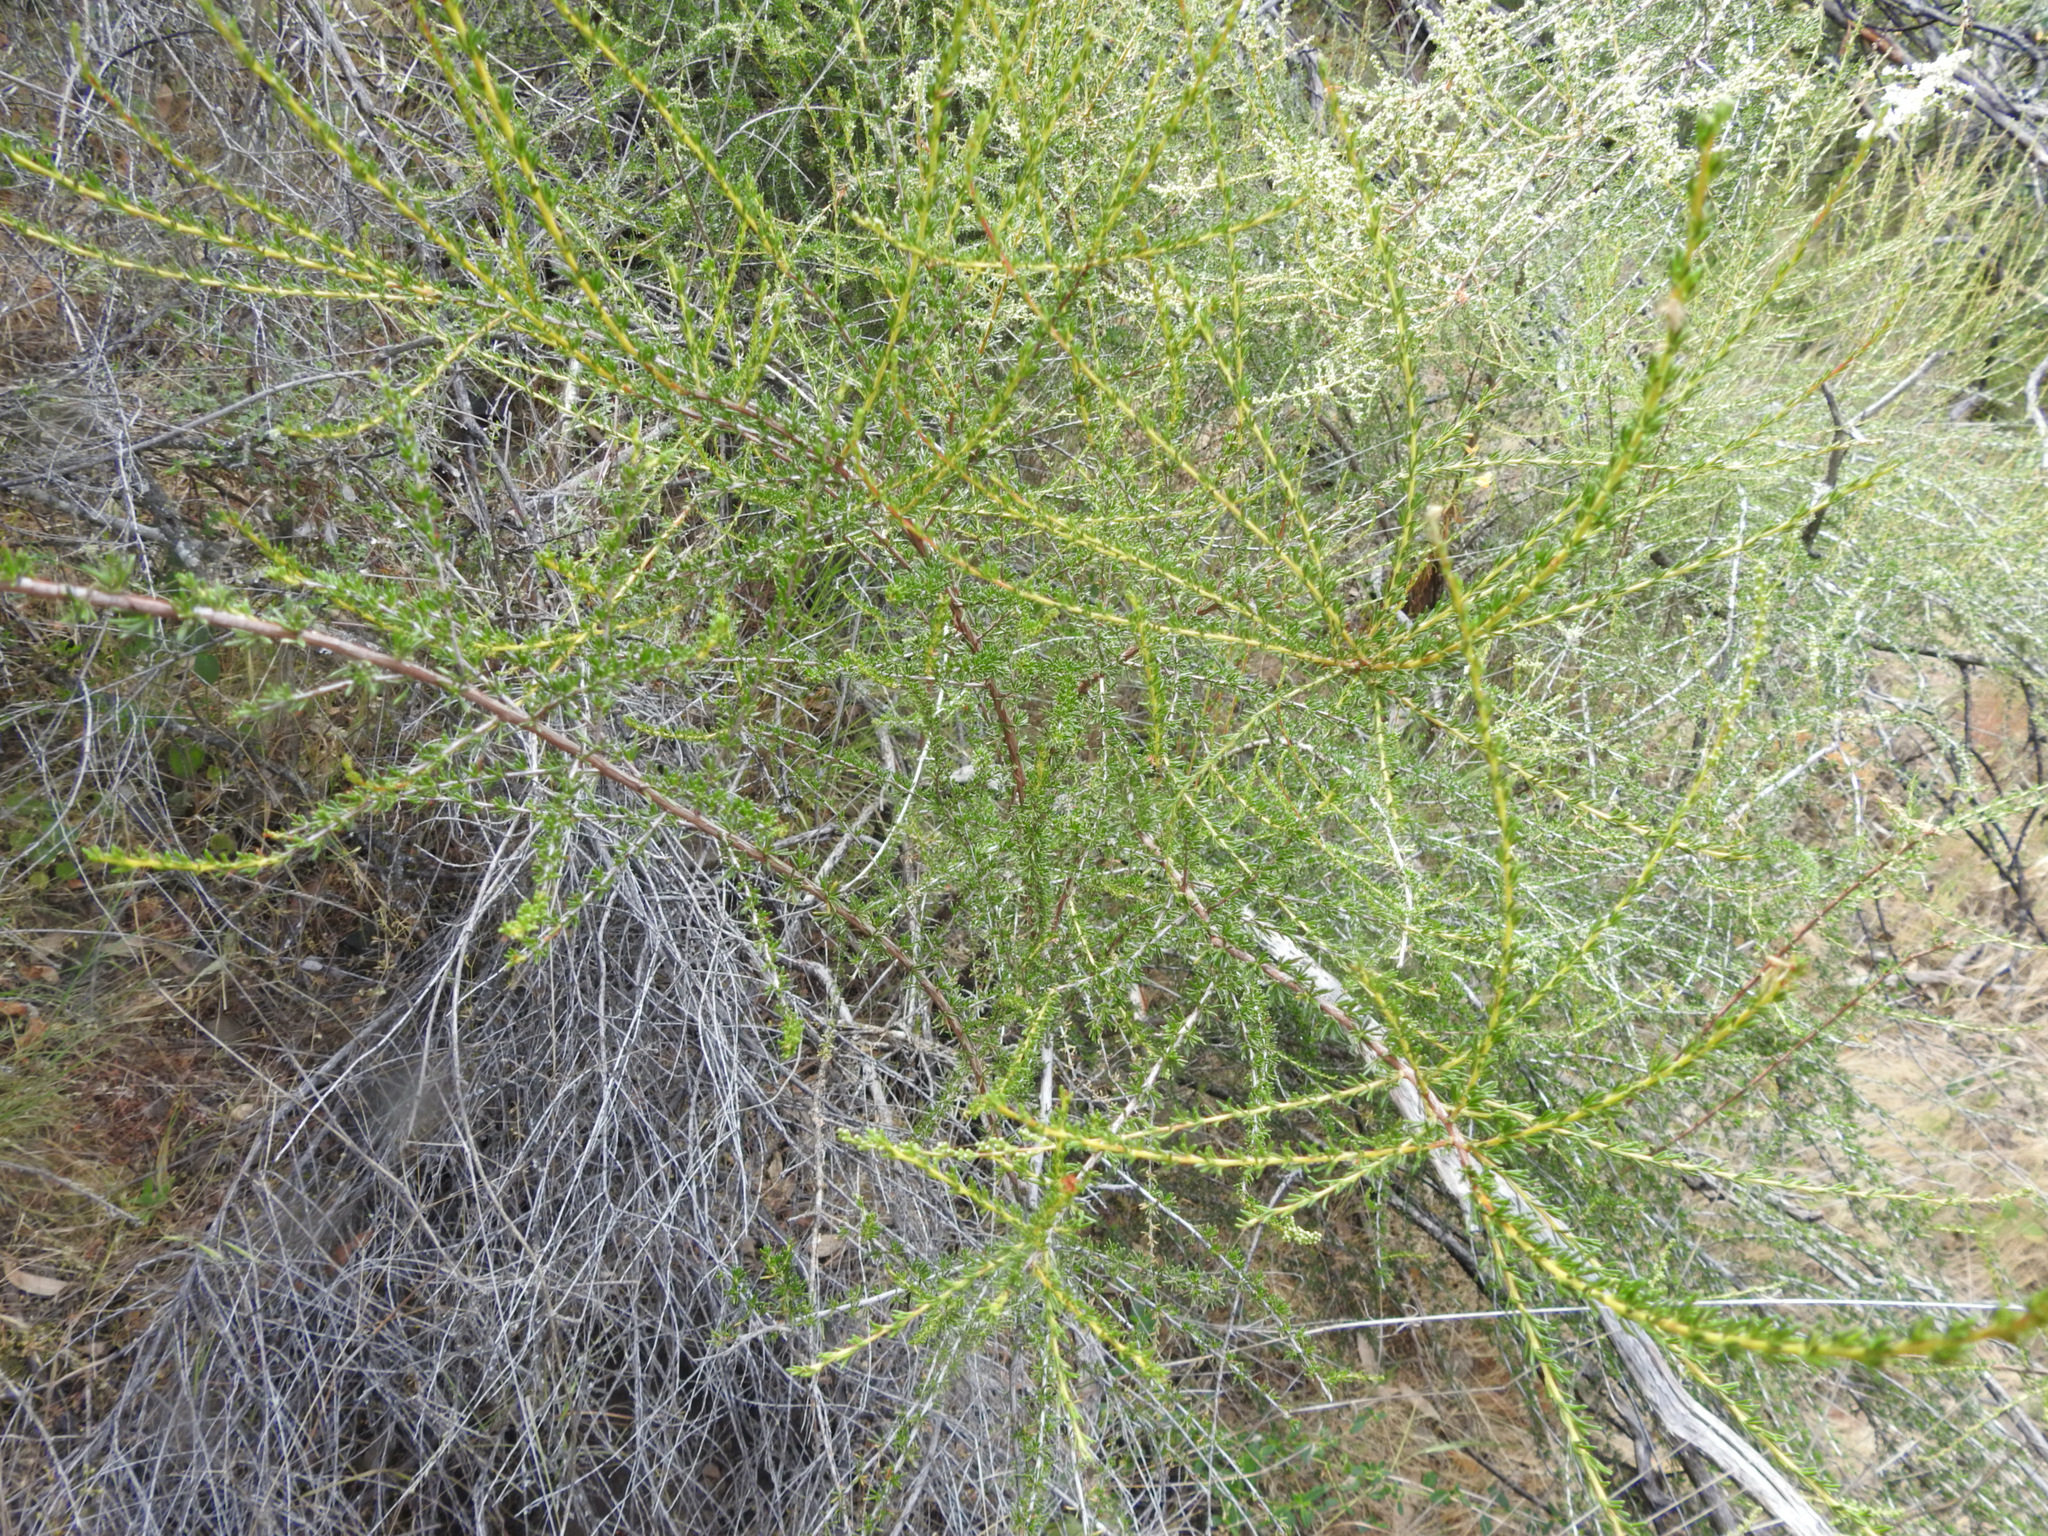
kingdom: Plantae
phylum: Tracheophyta
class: Magnoliopsida
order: Rosales
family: Rosaceae
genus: Adenostoma
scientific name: Adenostoma fasciculatum
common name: Chamise
